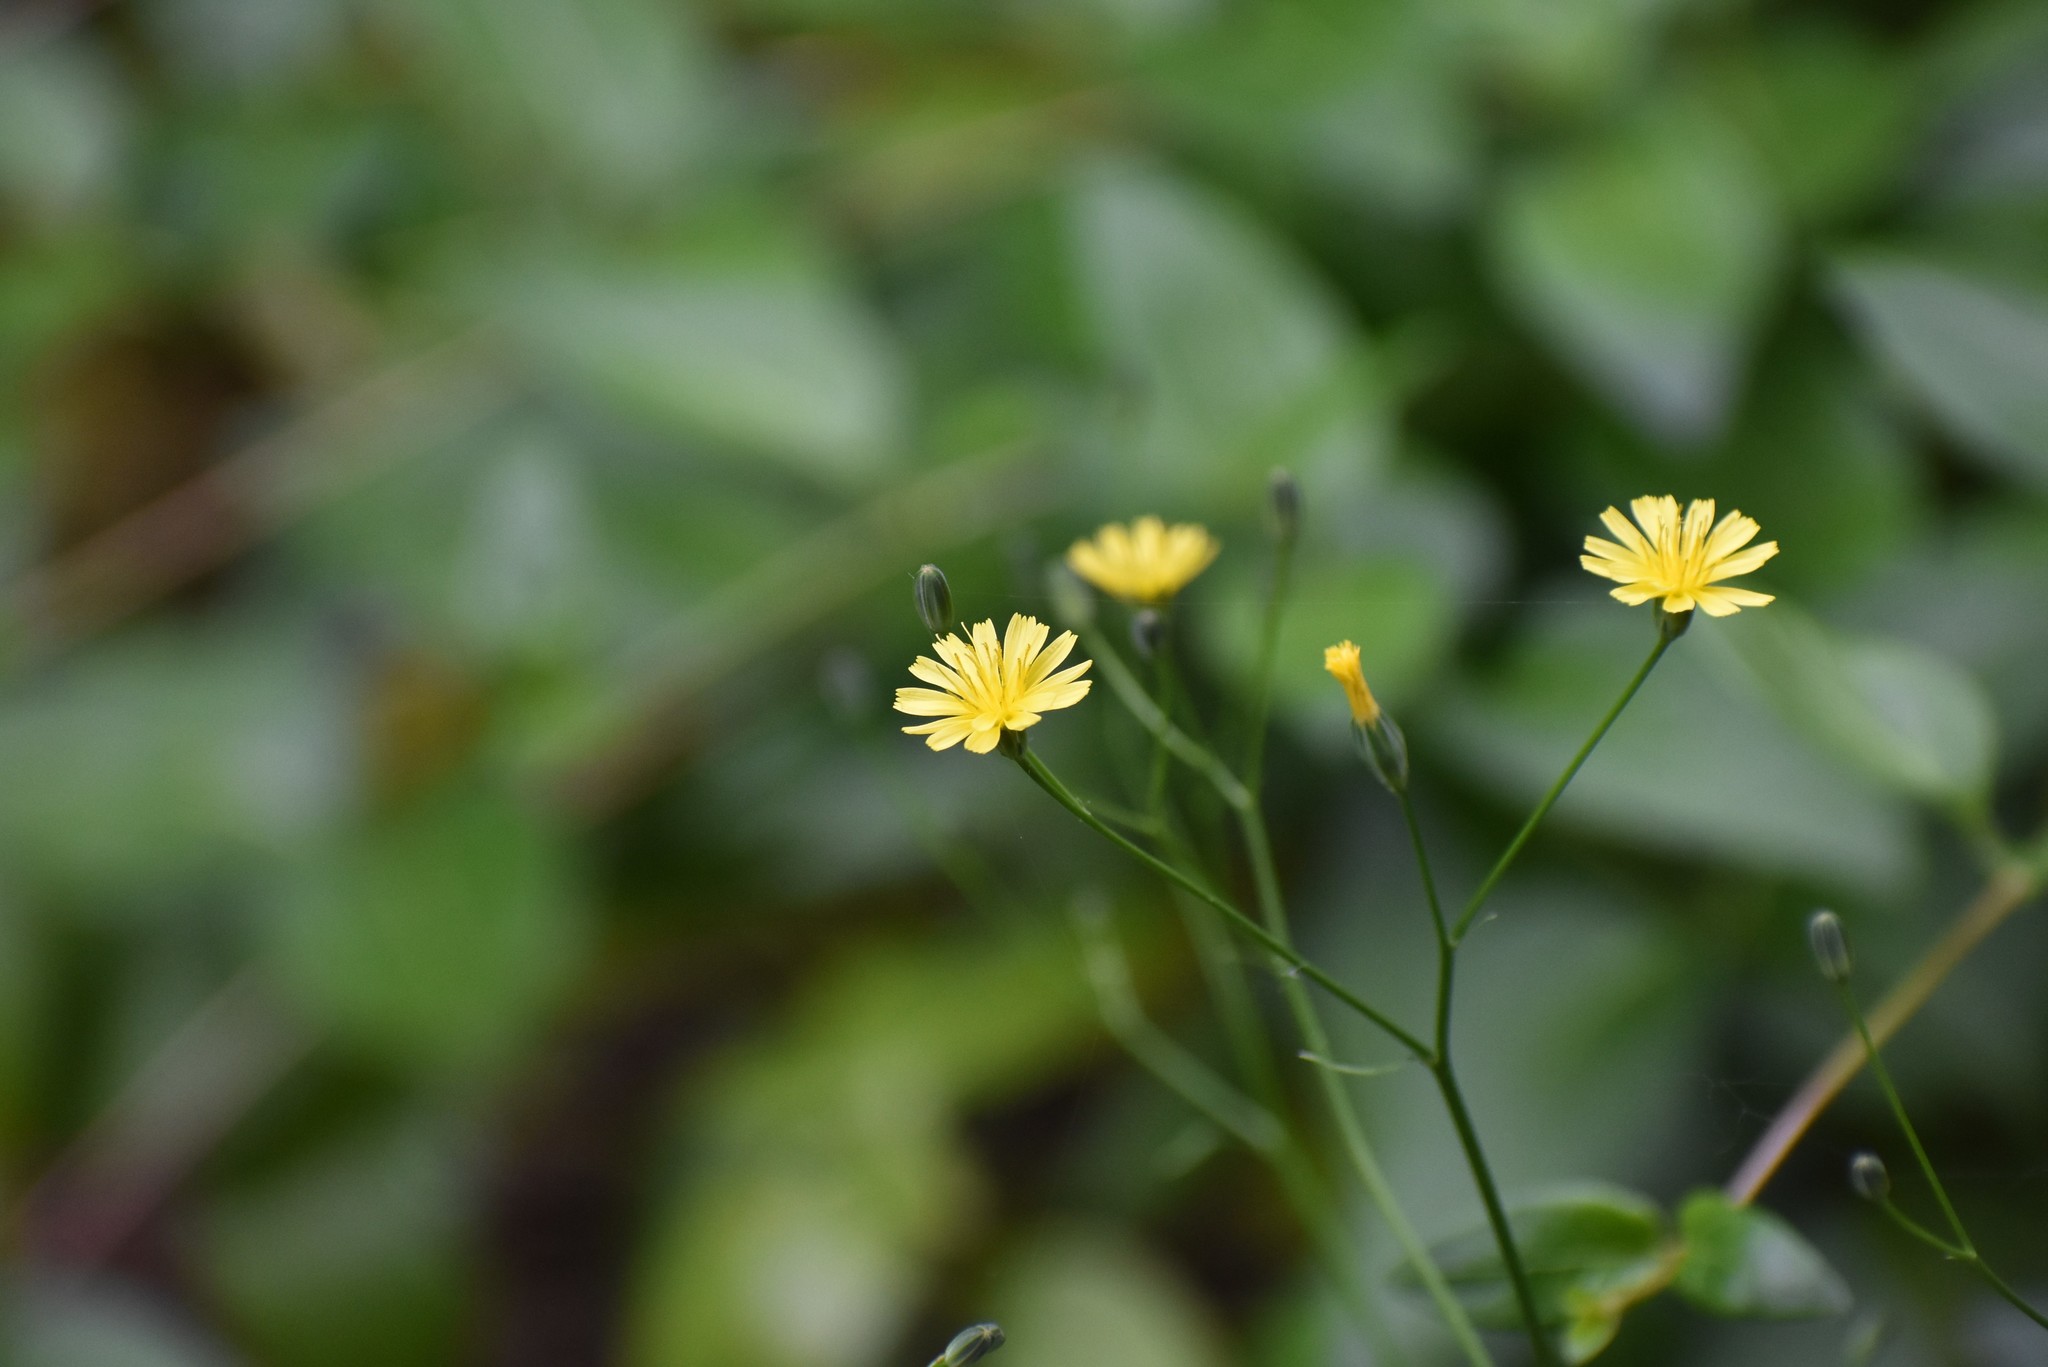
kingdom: Plantae
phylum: Tracheophyta
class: Magnoliopsida
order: Asterales
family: Asteraceae
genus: Lapsana
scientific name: Lapsana communis
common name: Nipplewort
